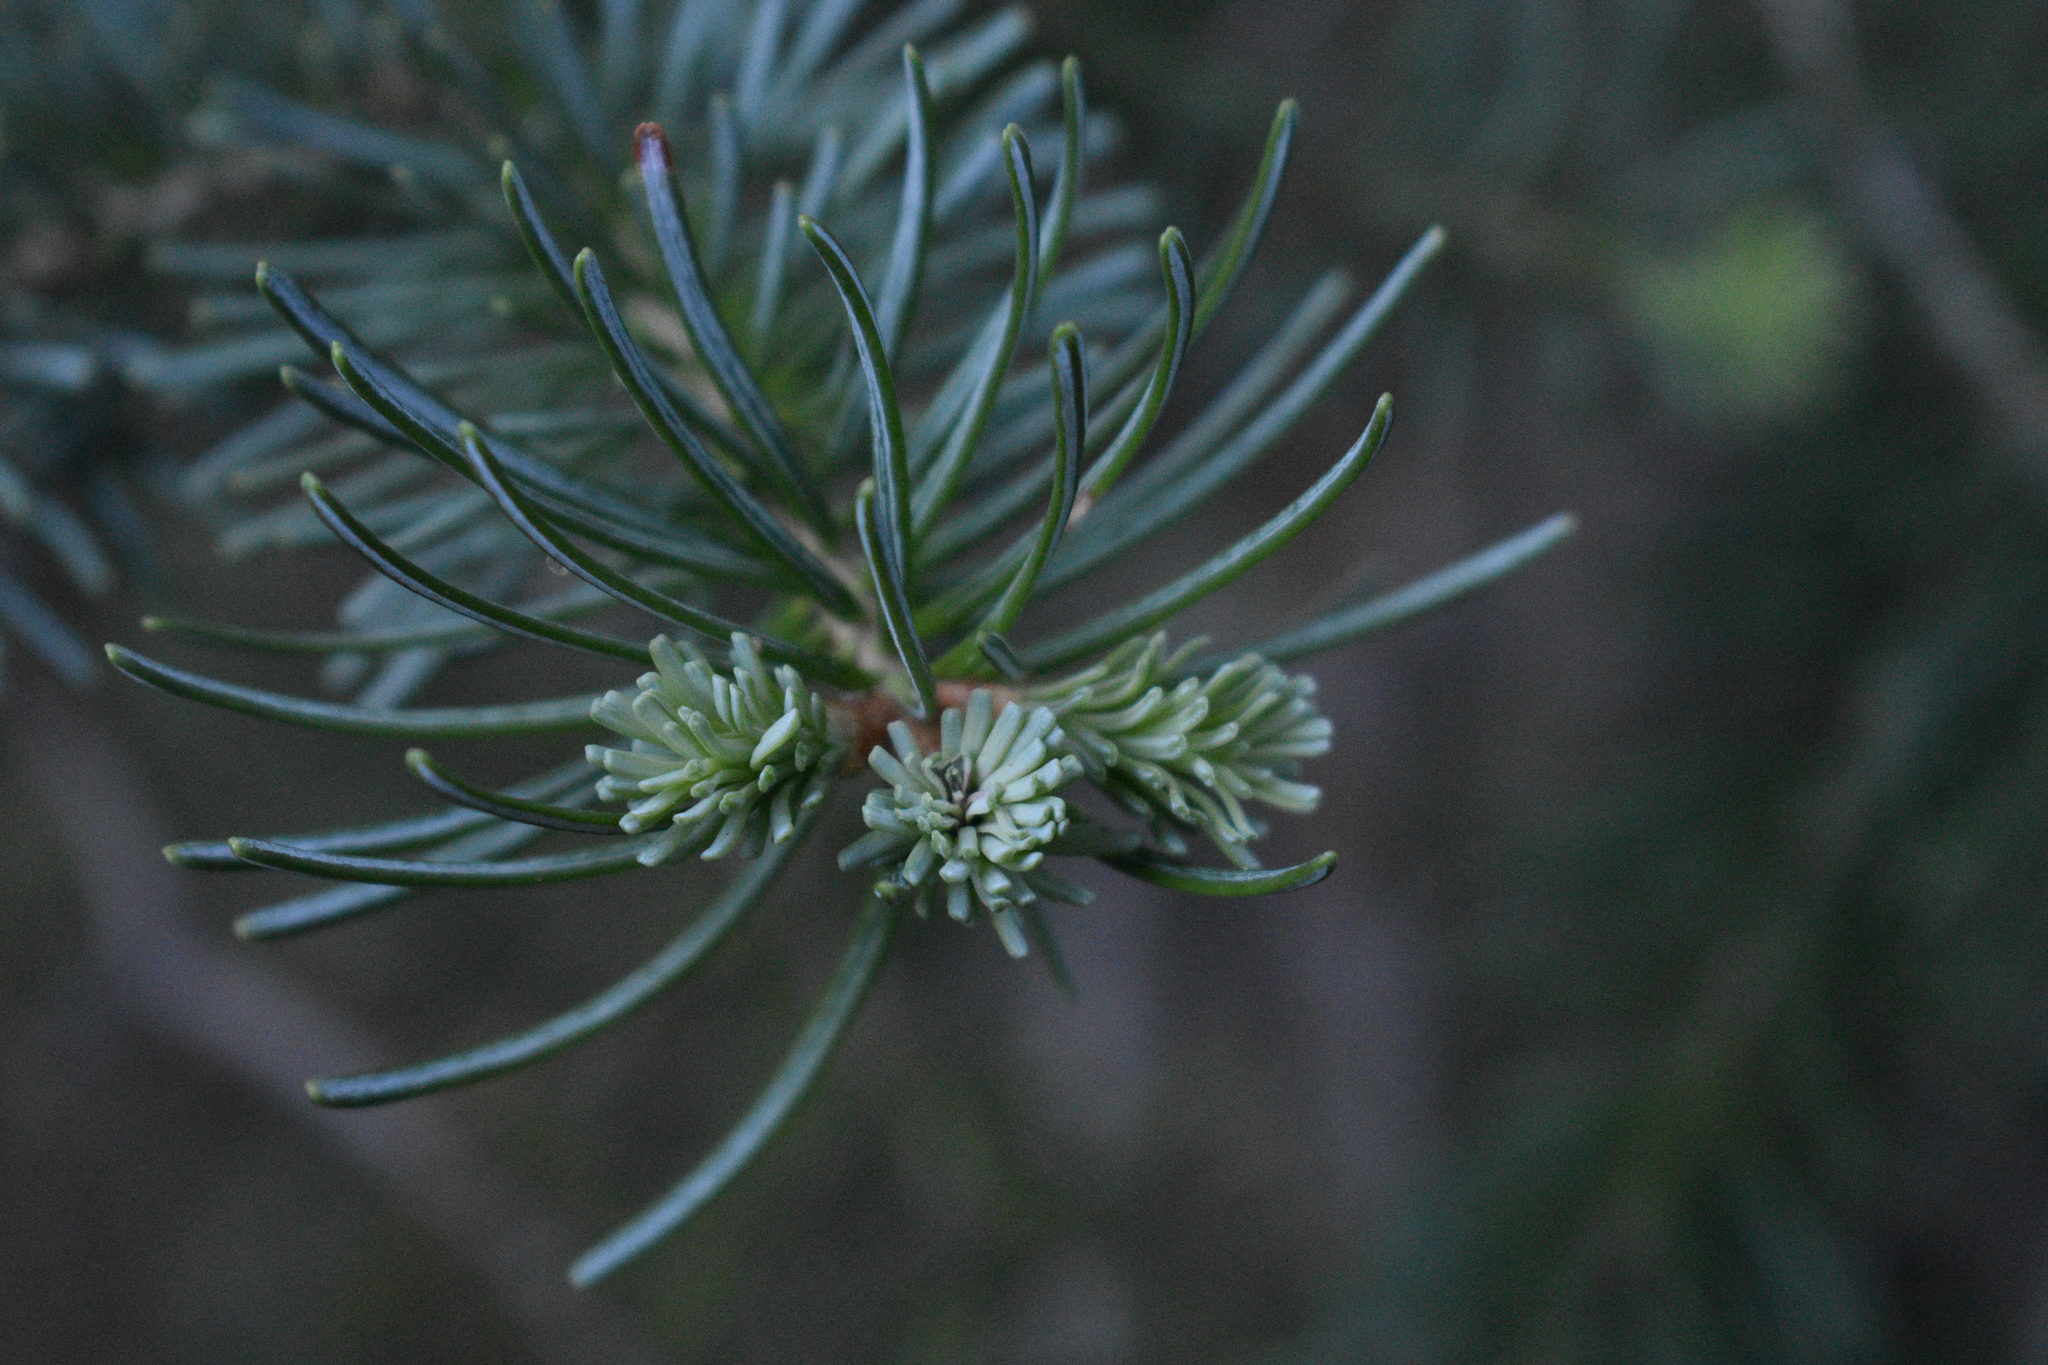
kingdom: Plantae
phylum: Tracheophyta
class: Pinopsida
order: Pinales
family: Pinaceae
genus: Abies
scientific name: Abies lasiocarpa
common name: Subalpine fir
